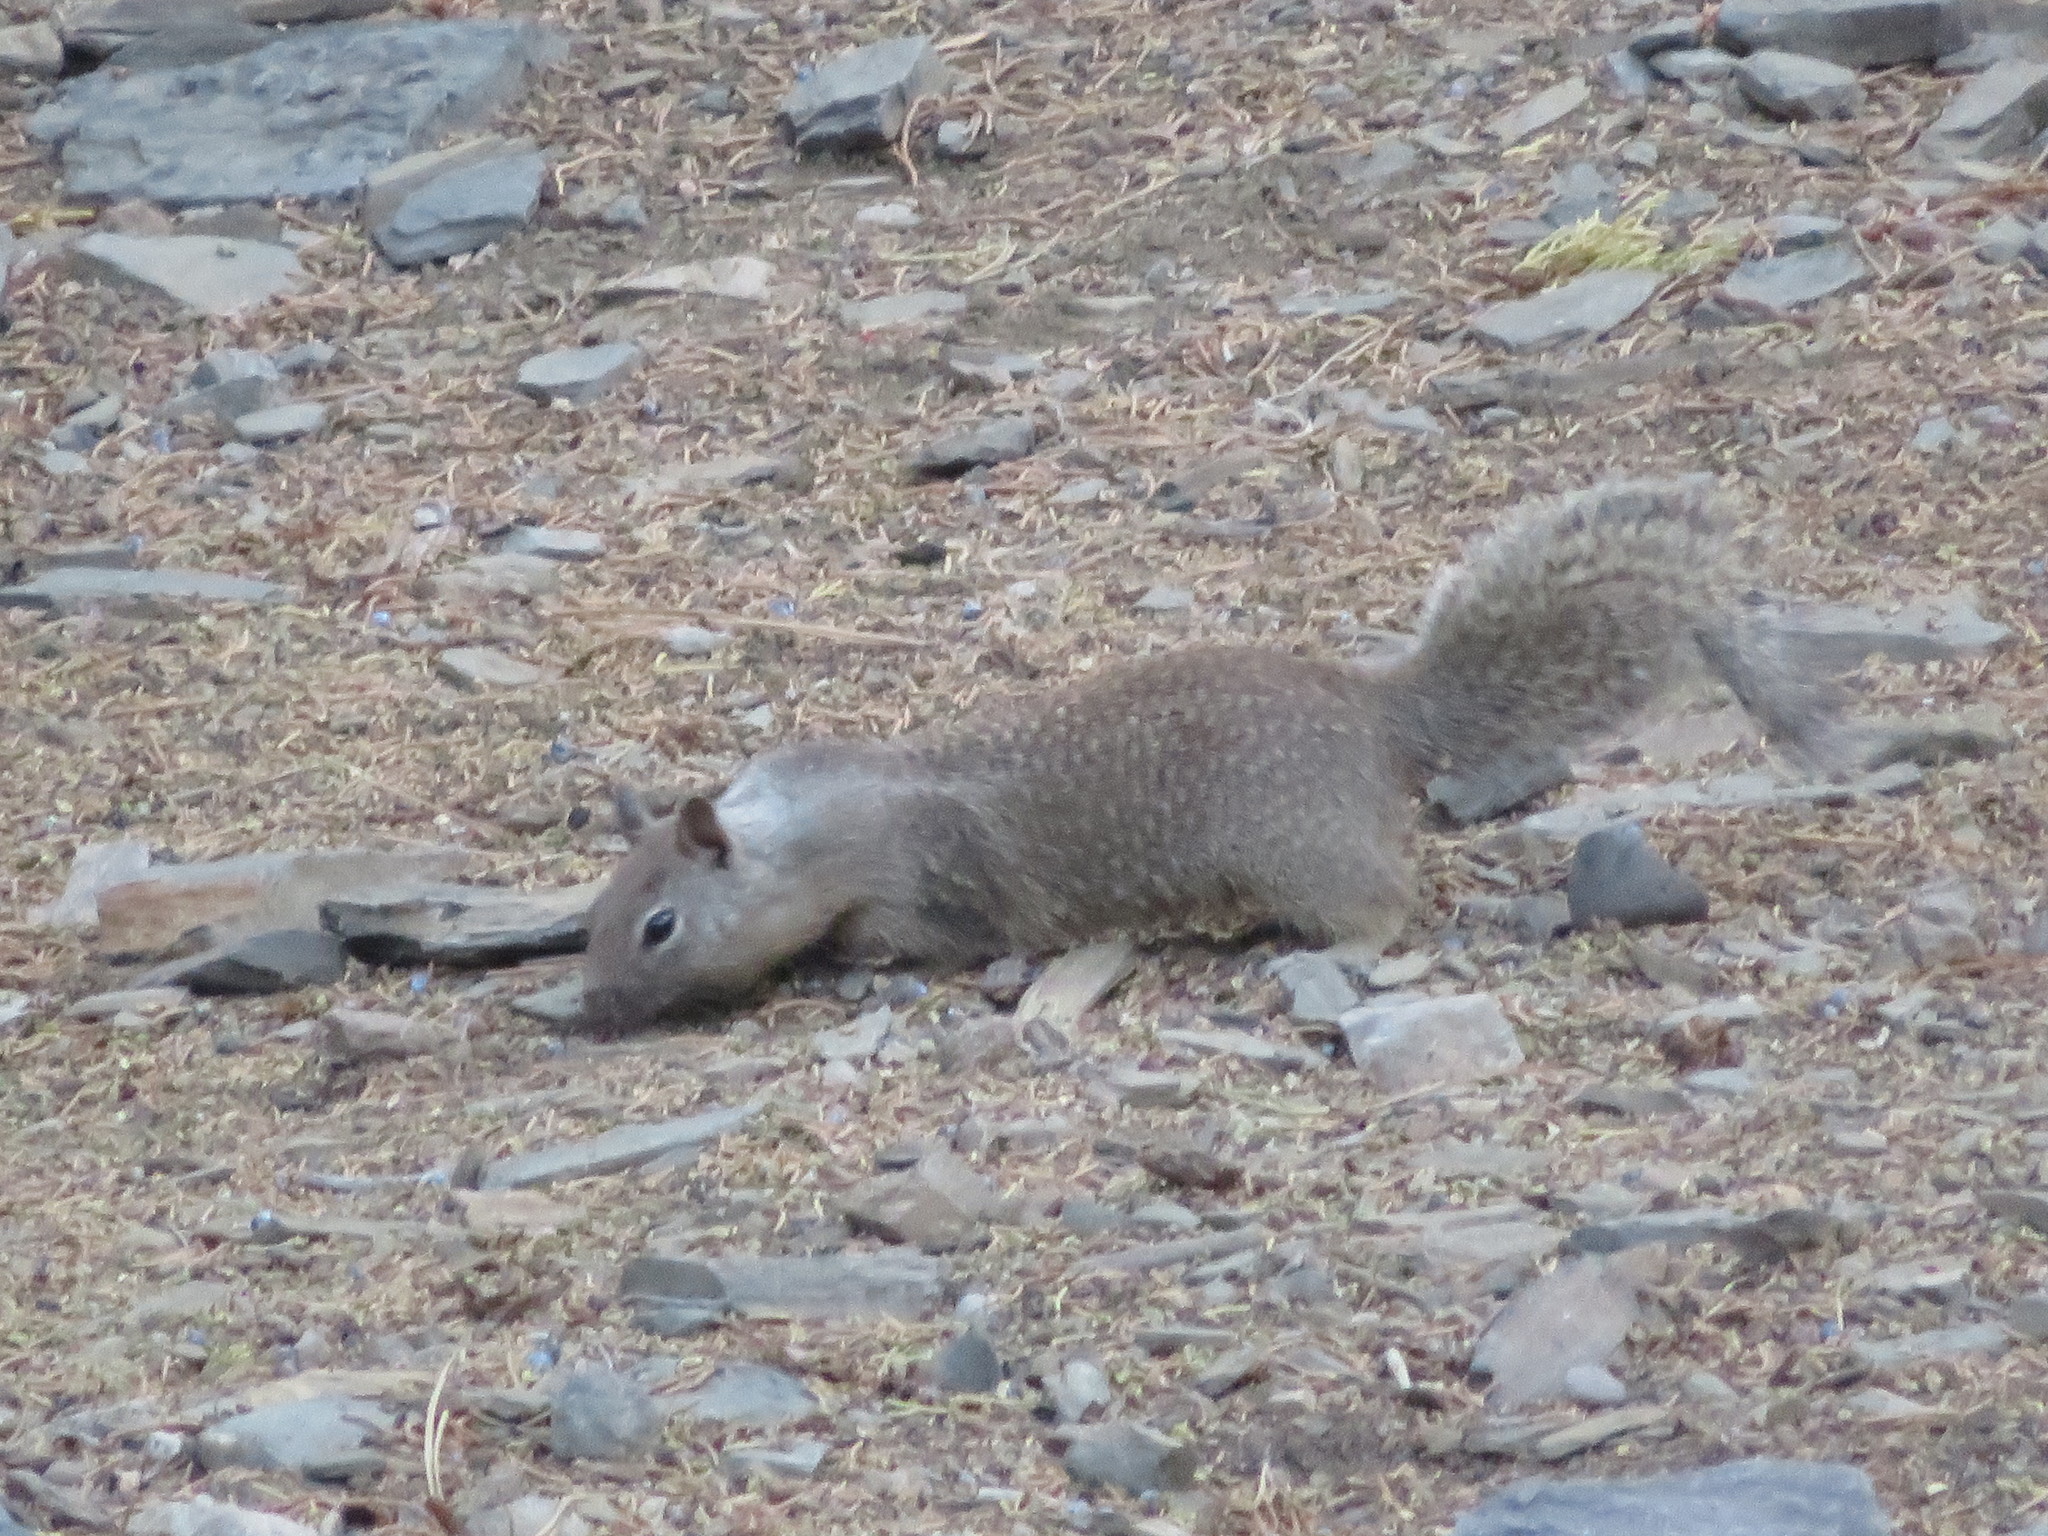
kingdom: Animalia
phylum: Chordata
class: Mammalia
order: Rodentia
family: Sciuridae
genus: Otospermophilus
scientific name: Otospermophilus beecheyi
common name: California ground squirrel
